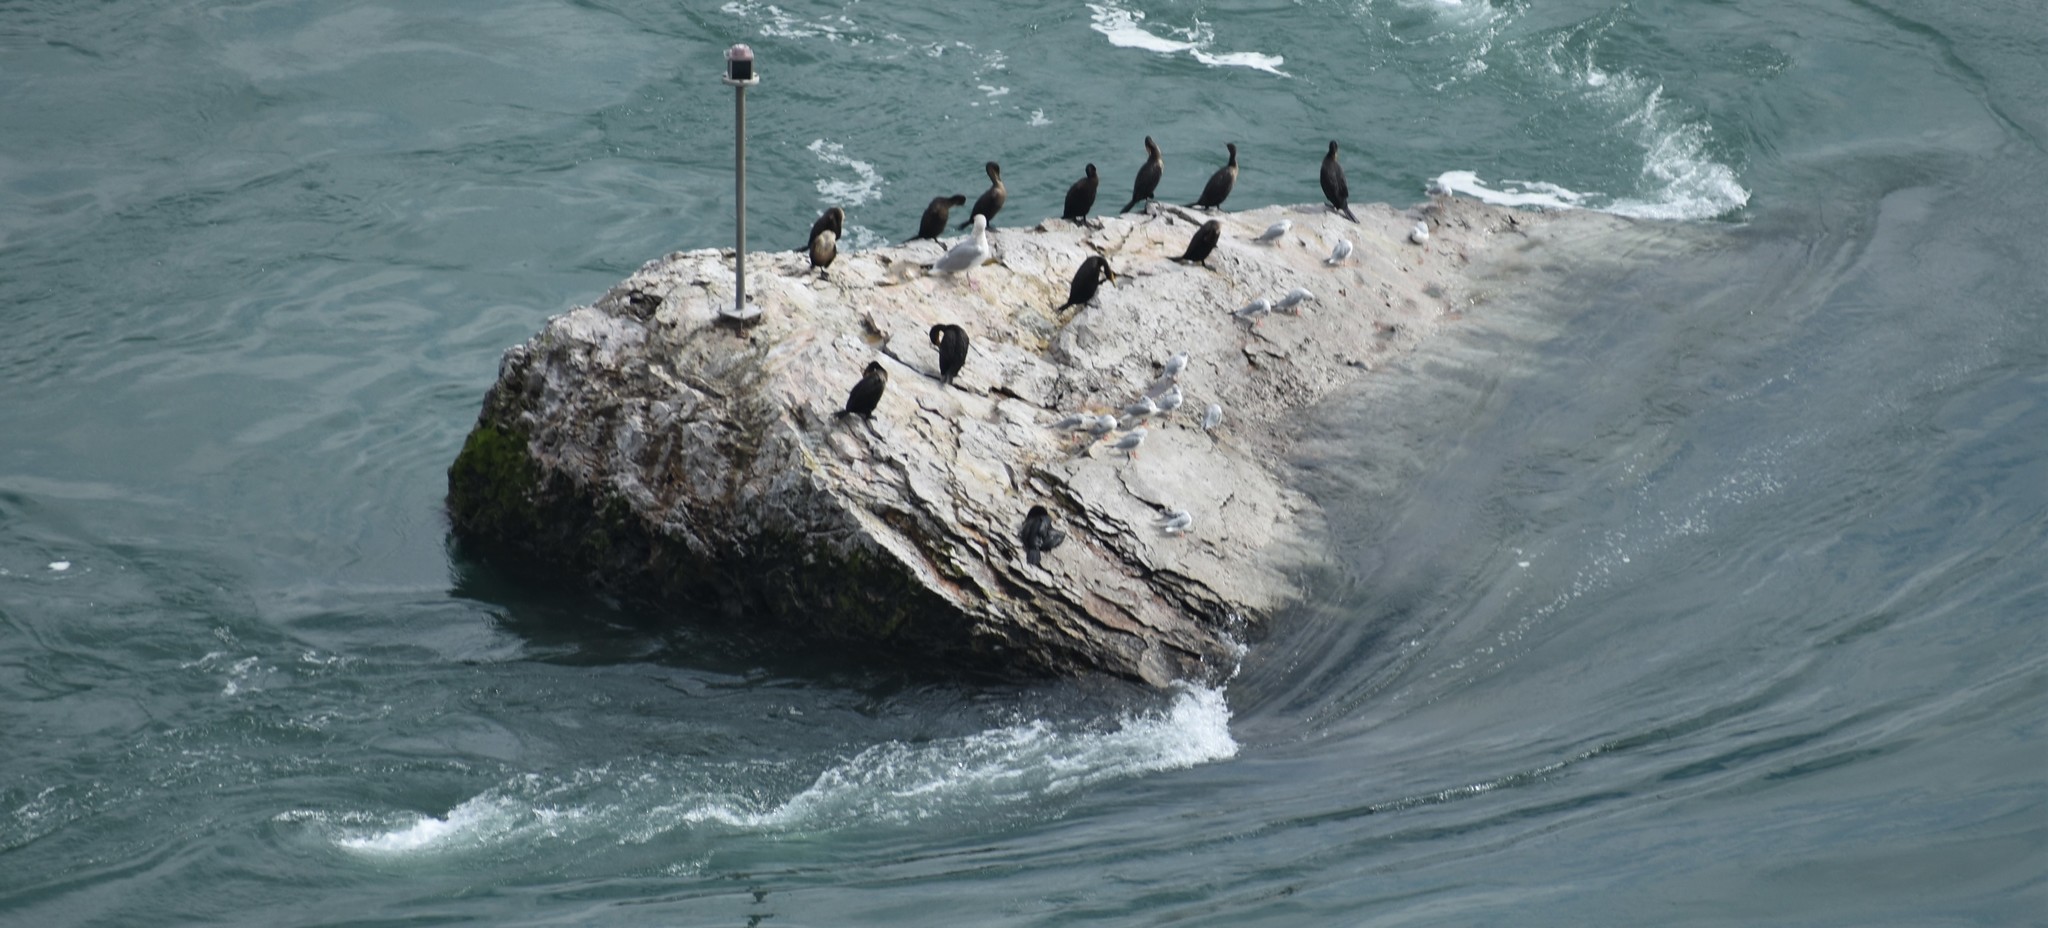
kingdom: Animalia
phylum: Chordata
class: Aves
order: Suliformes
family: Phalacrocoracidae
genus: Phalacrocorax
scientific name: Phalacrocorax auritus
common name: Double-crested cormorant
